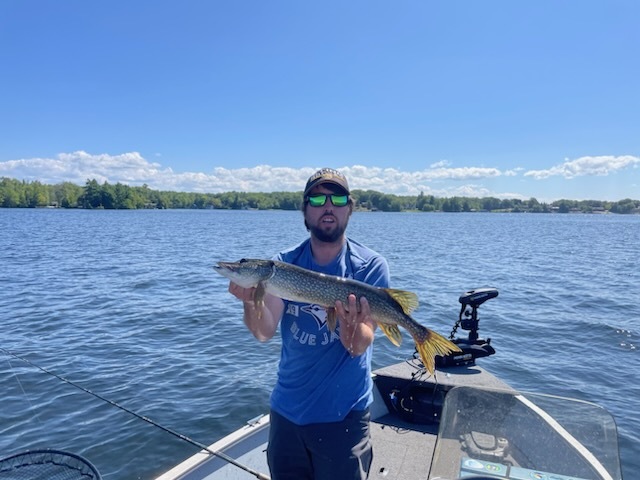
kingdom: Animalia
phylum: Chordata
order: Esociformes
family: Esocidae
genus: Esox
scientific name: Esox lucius
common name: Northern pike
